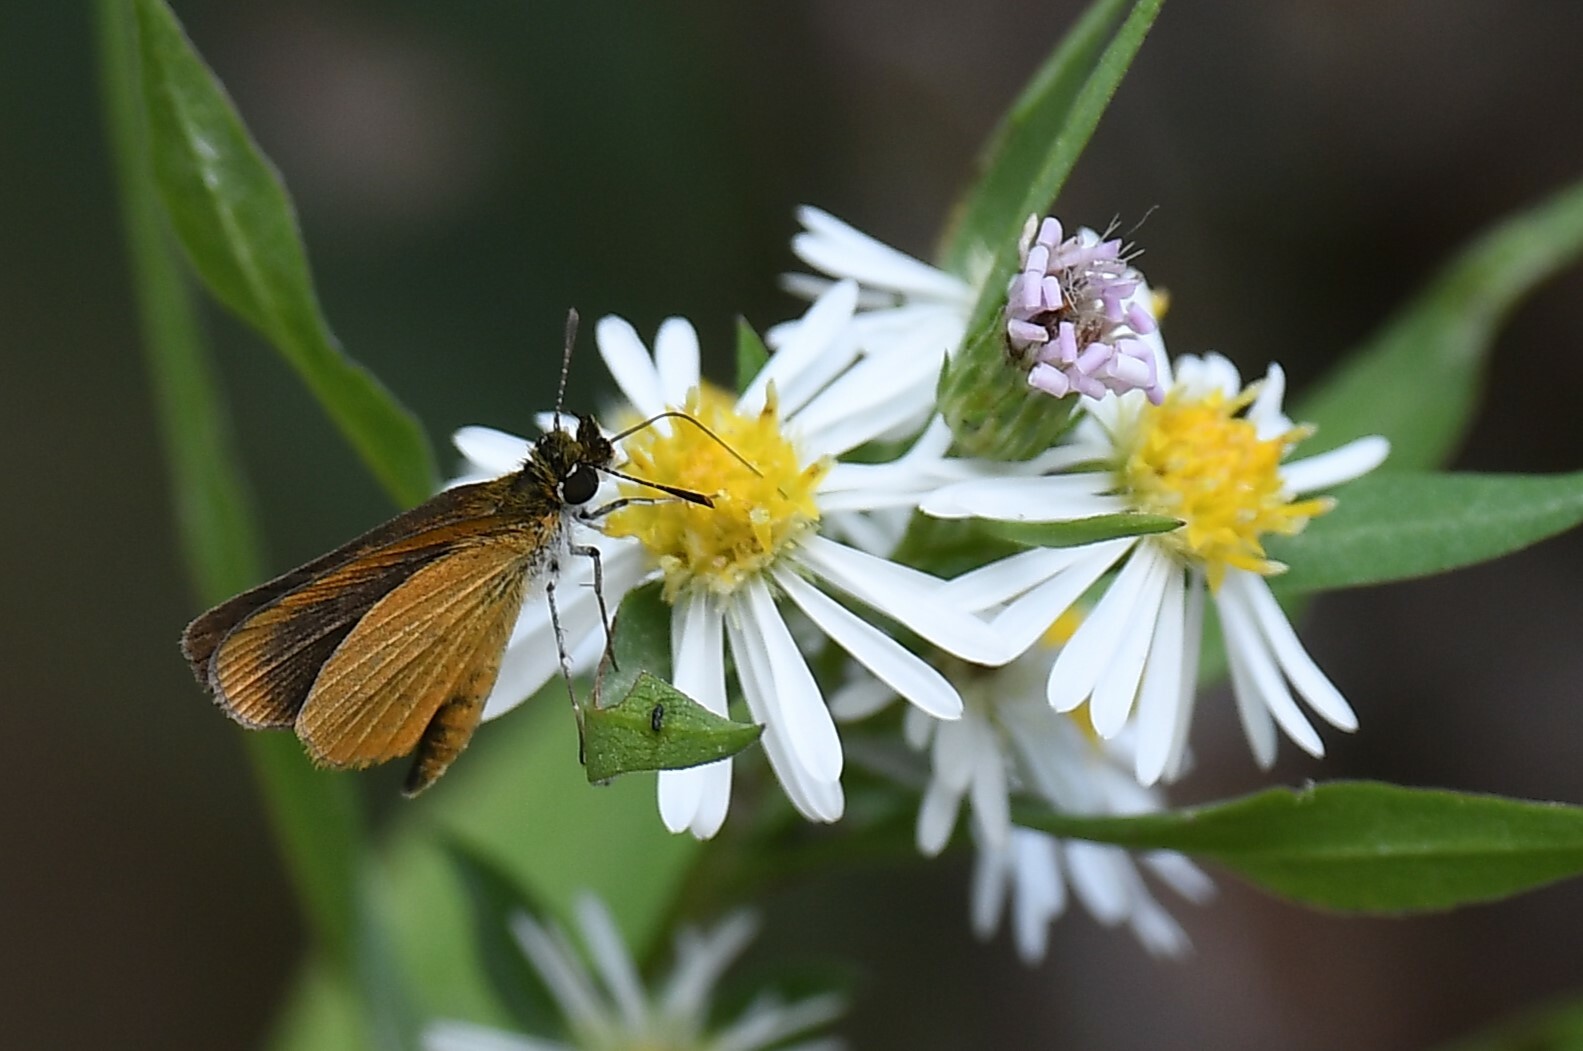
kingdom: Animalia
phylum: Arthropoda
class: Insecta
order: Lepidoptera
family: Hesperiidae
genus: Ancyloxypha
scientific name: Ancyloxypha numitor
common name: Least skipper
